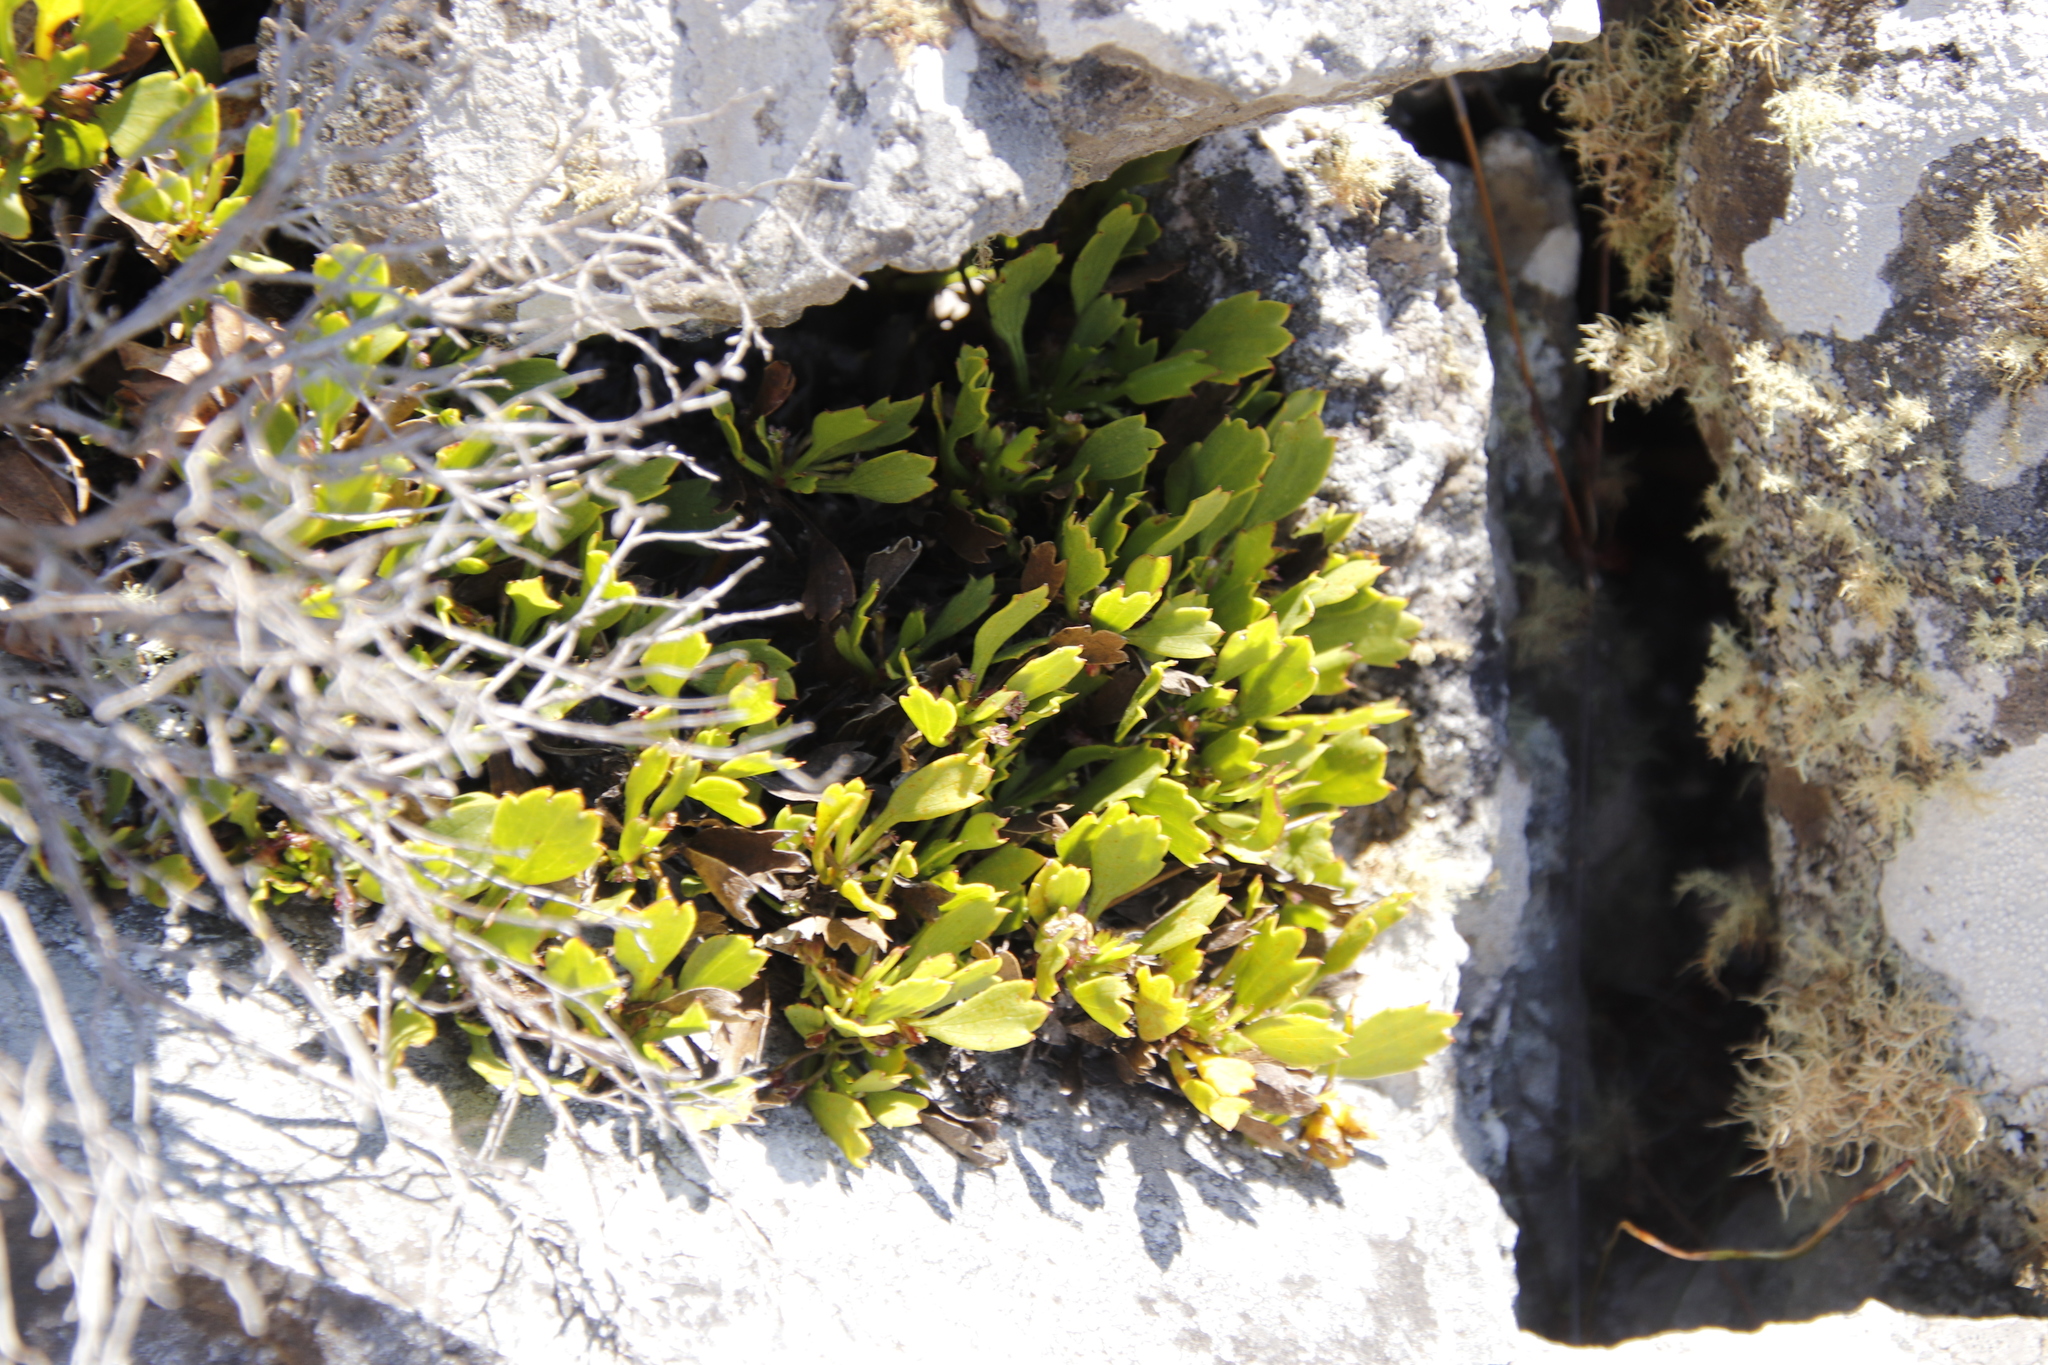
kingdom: Plantae
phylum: Tracheophyta
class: Magnoliopsida
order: Apiales
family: Apiaceae
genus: Centella
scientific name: Centella triloba
